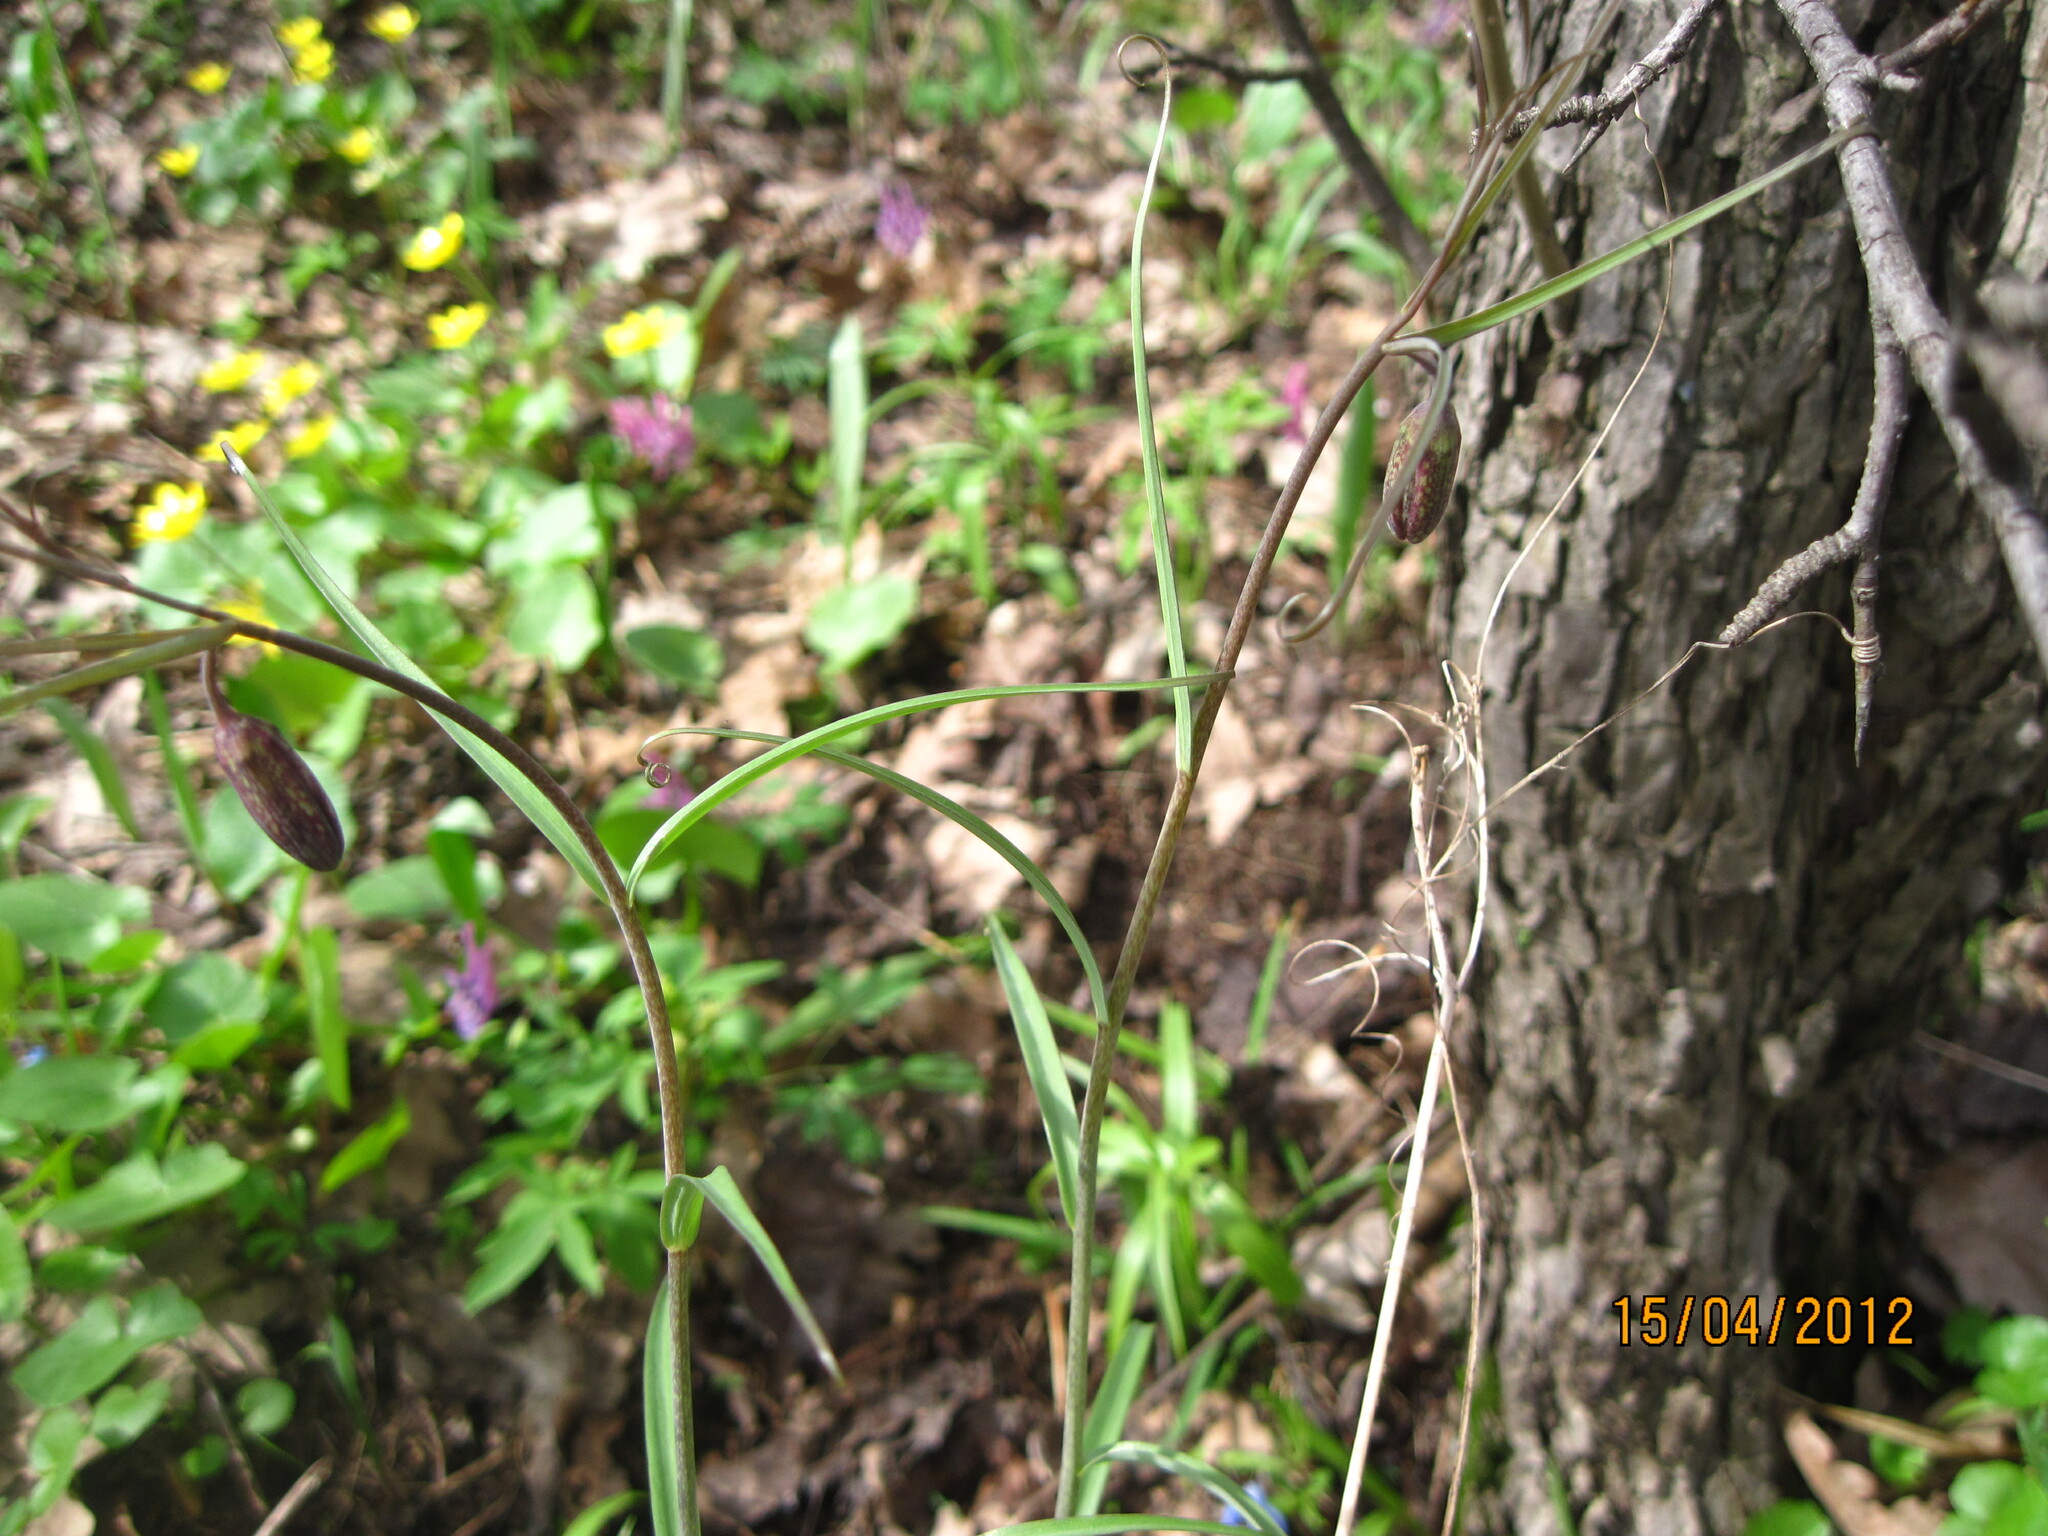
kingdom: Plantae
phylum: Tracheophyta
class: Liliopsida
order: Liliales
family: Liliaceae
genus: Fritillaria
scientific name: Fritillaria ruthenica
